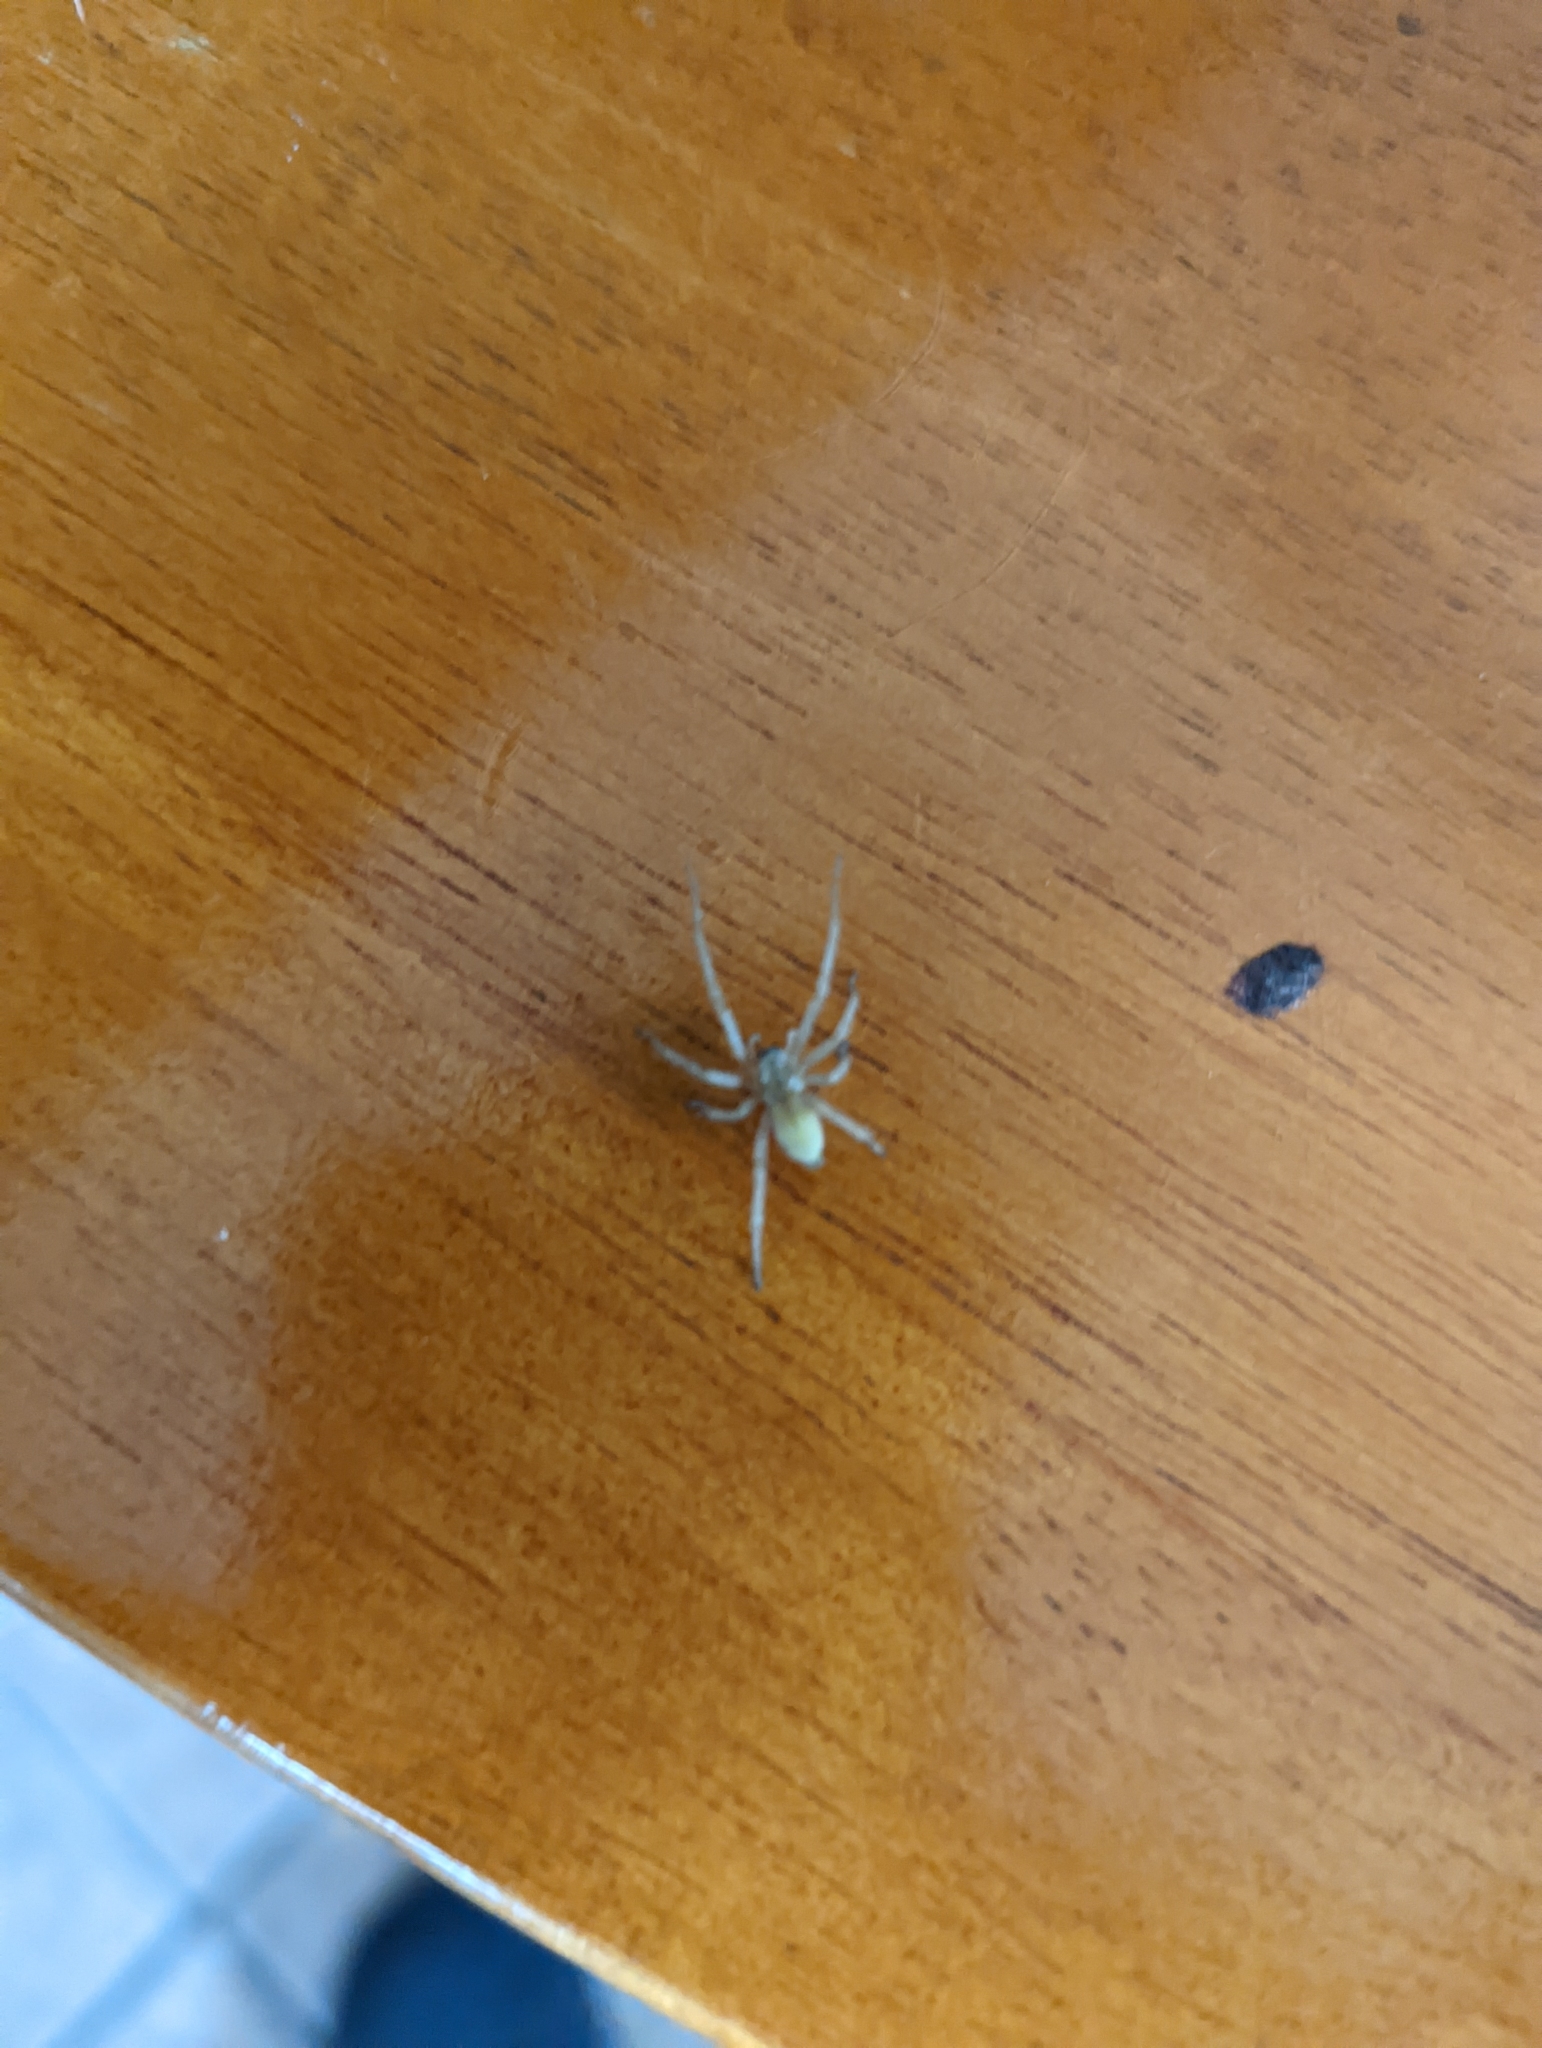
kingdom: Animalia
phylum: Arthropoda
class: Arachnida
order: Araneae
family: Cheiracanthiidae
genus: Cheiracanthium
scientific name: Cheiracanthium mildei
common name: Northern yellow sac spider
